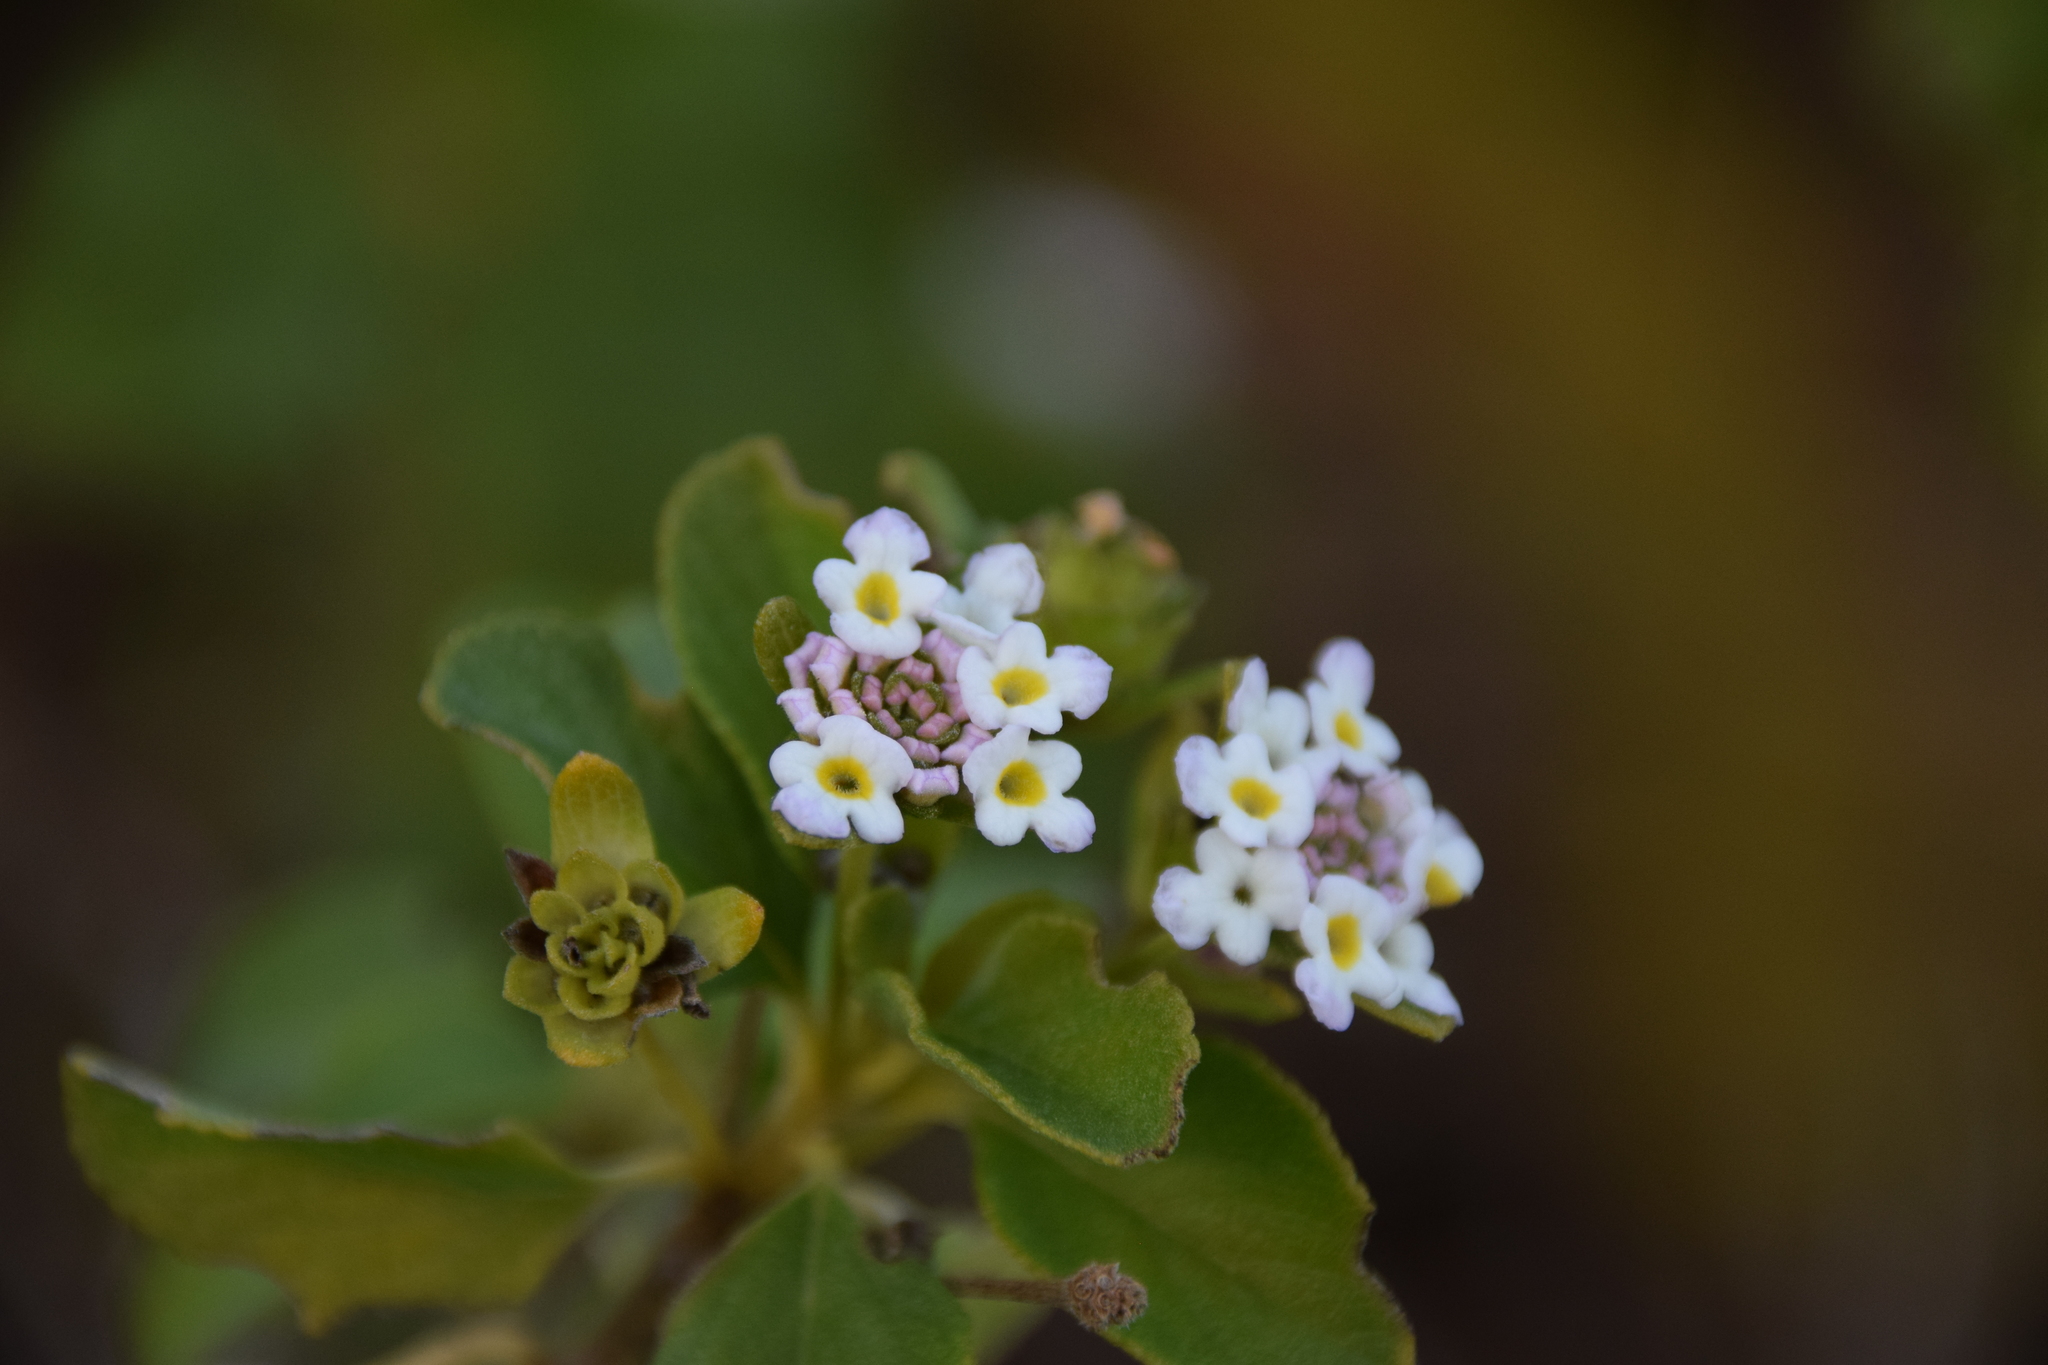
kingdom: Plantae
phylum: Tracheophyta
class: Magnoliopsida
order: Lamiales
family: Verbenaceae
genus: Lantana
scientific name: Lantana involucrata
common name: Black sage
